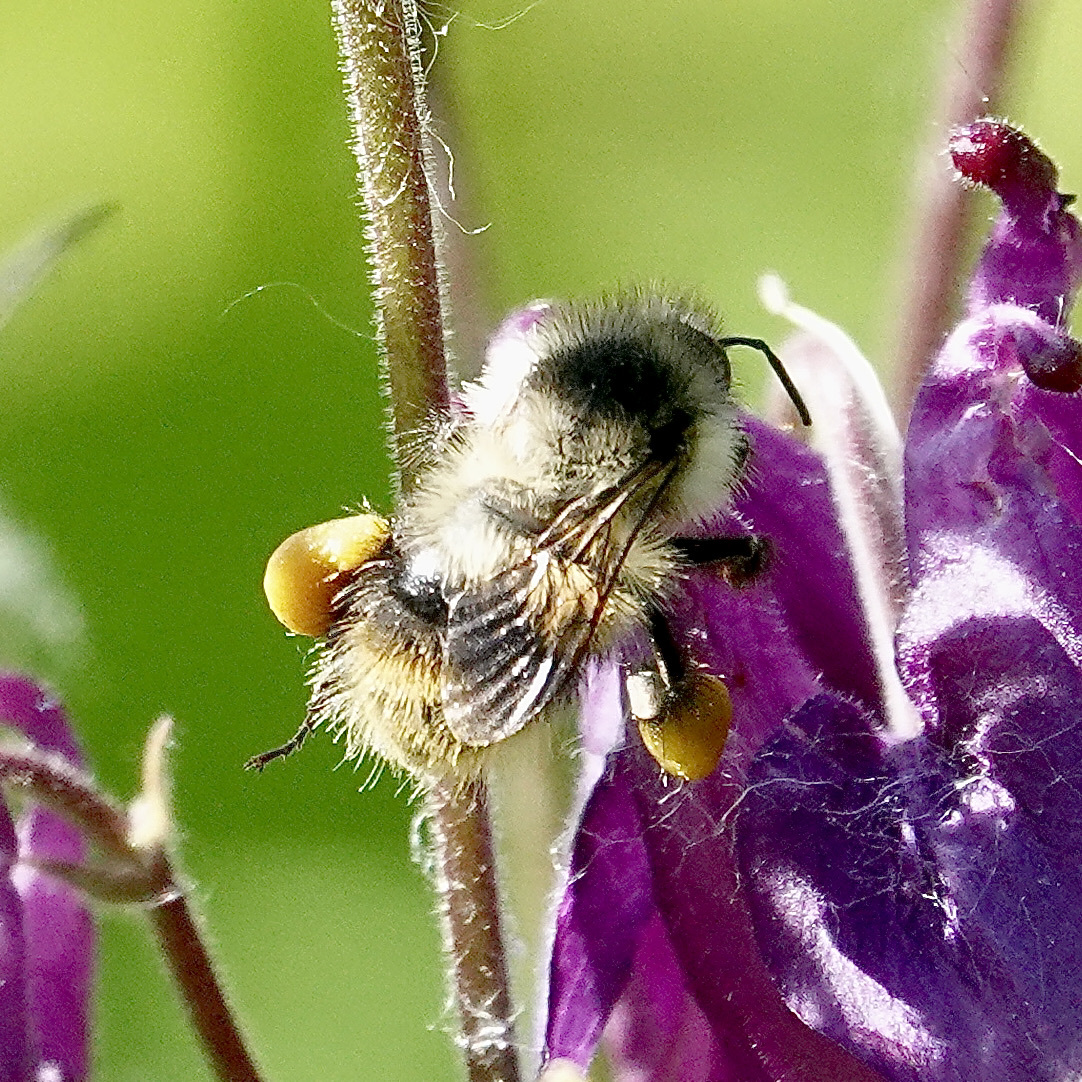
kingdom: Animalia
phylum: Arthropoda
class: Insecta
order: Hymenoptera
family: Apidae
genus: Bombus
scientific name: Bombus mixtus
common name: Fuzzy-horned bumble bee
